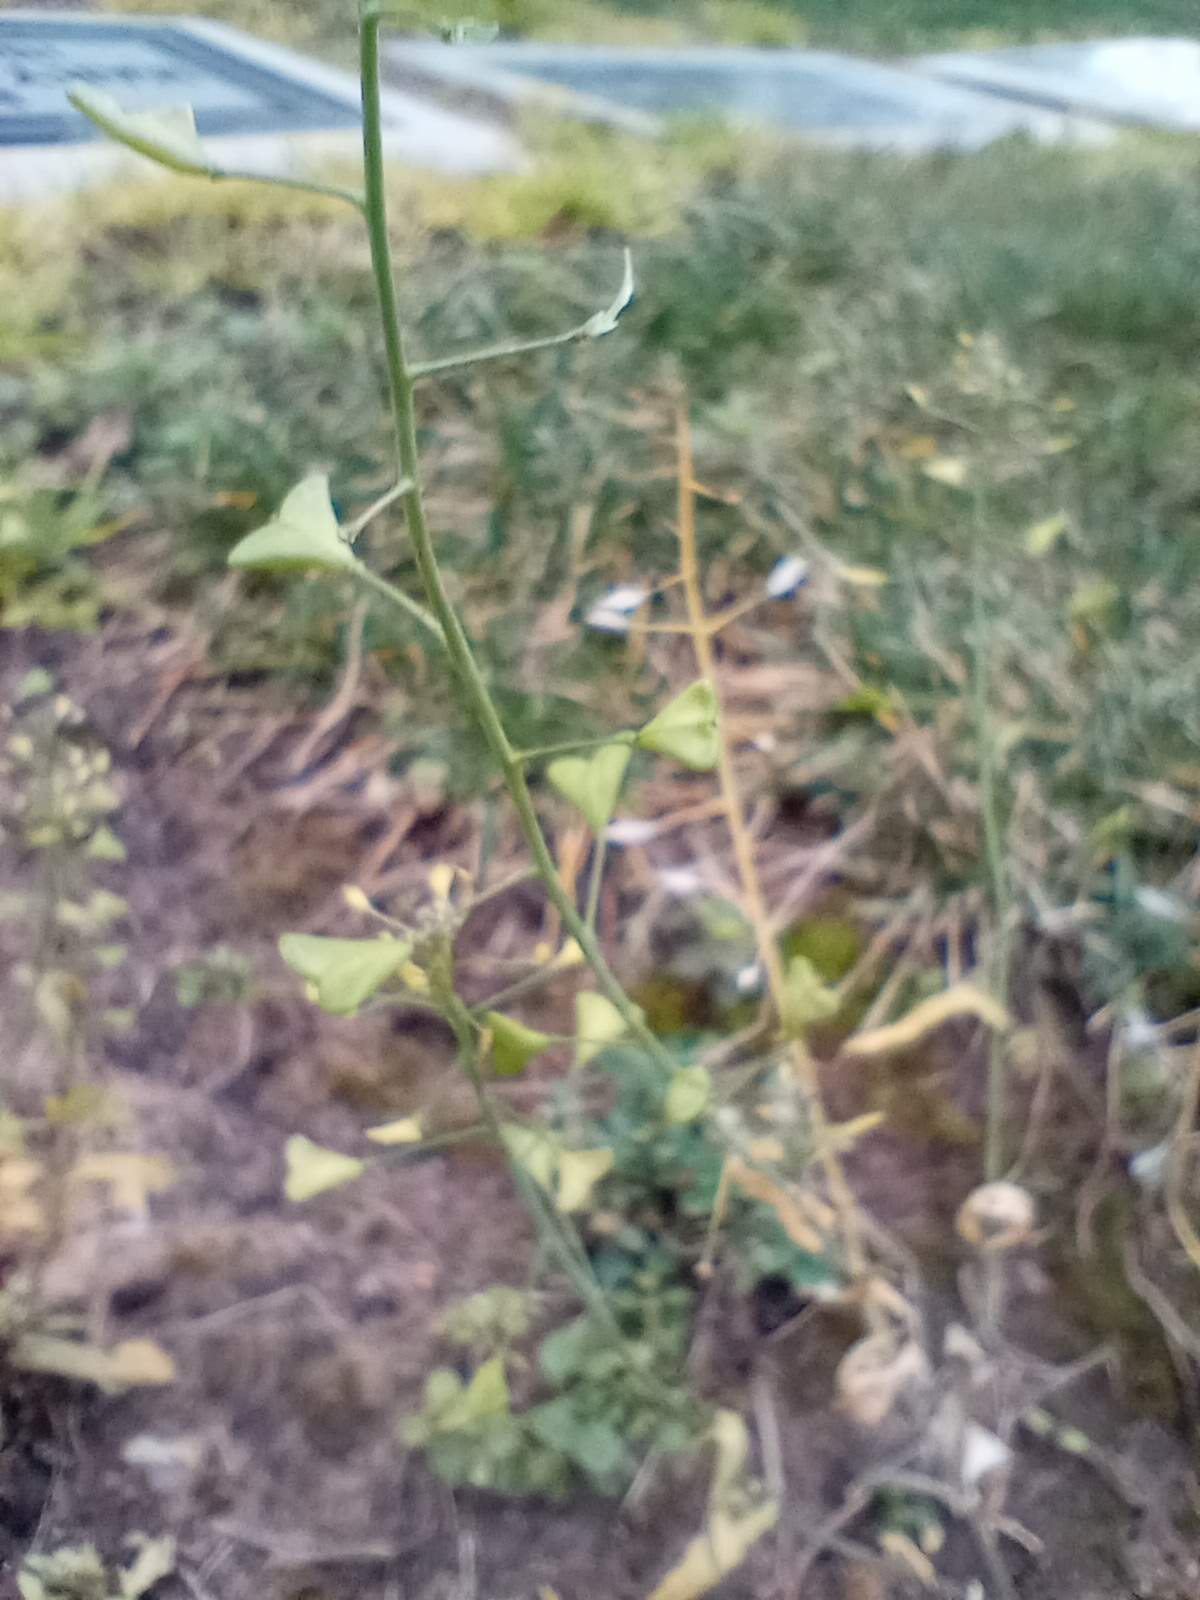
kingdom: Plantae
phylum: Tracheophyta
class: Magnoliopsida
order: Brassicales
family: Brassicaceae
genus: Capsella
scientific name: Capsella bursa-pastoris
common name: Shepherd's purse
